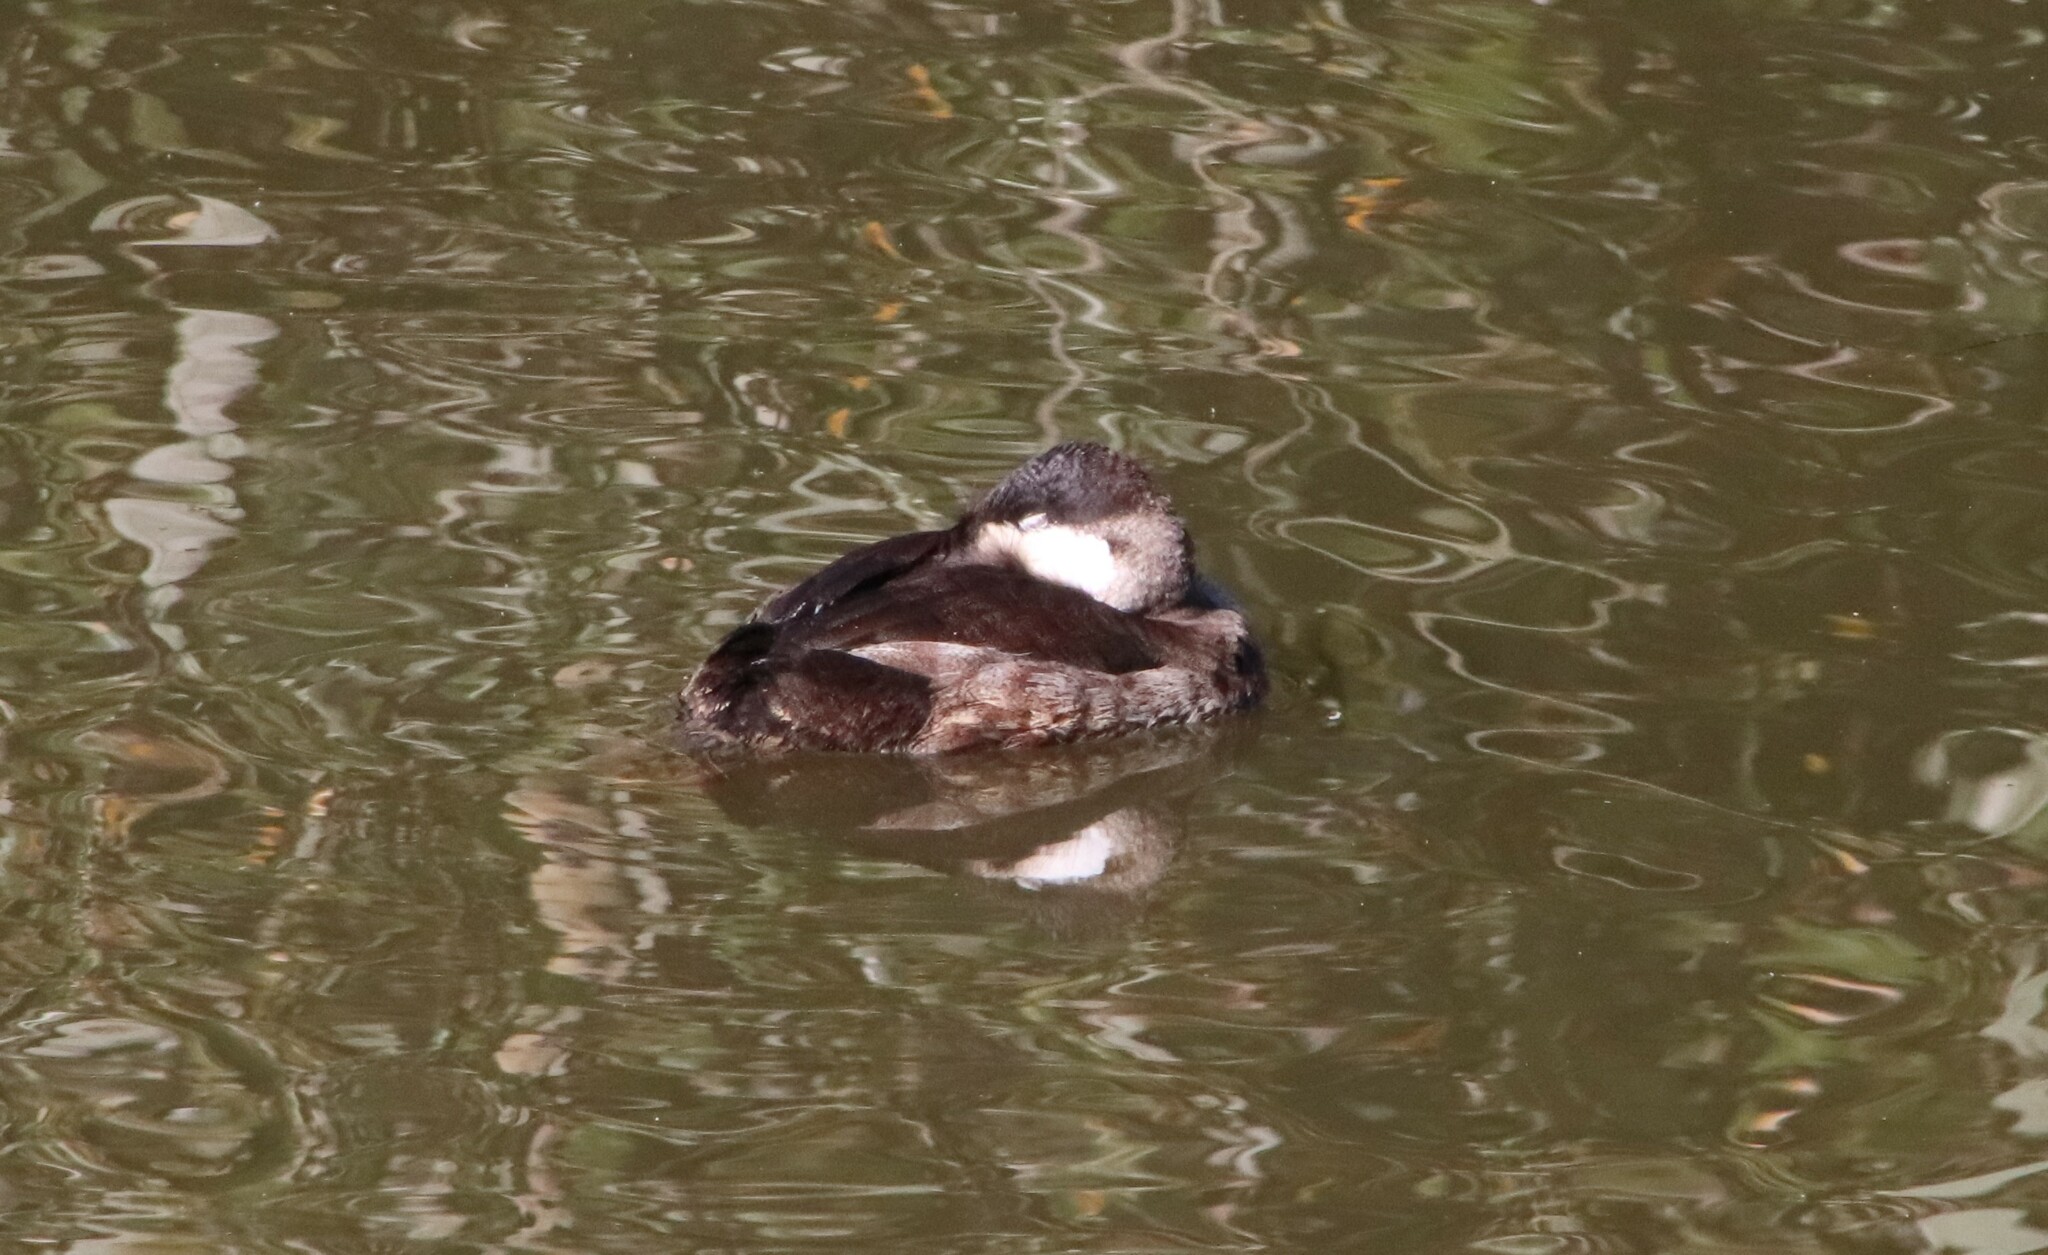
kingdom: Animalia
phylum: Chordata
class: Aves
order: Anseriformes
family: Anatidae
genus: Oxyura
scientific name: Oxyura jamaicensis
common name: Ruddy duck
